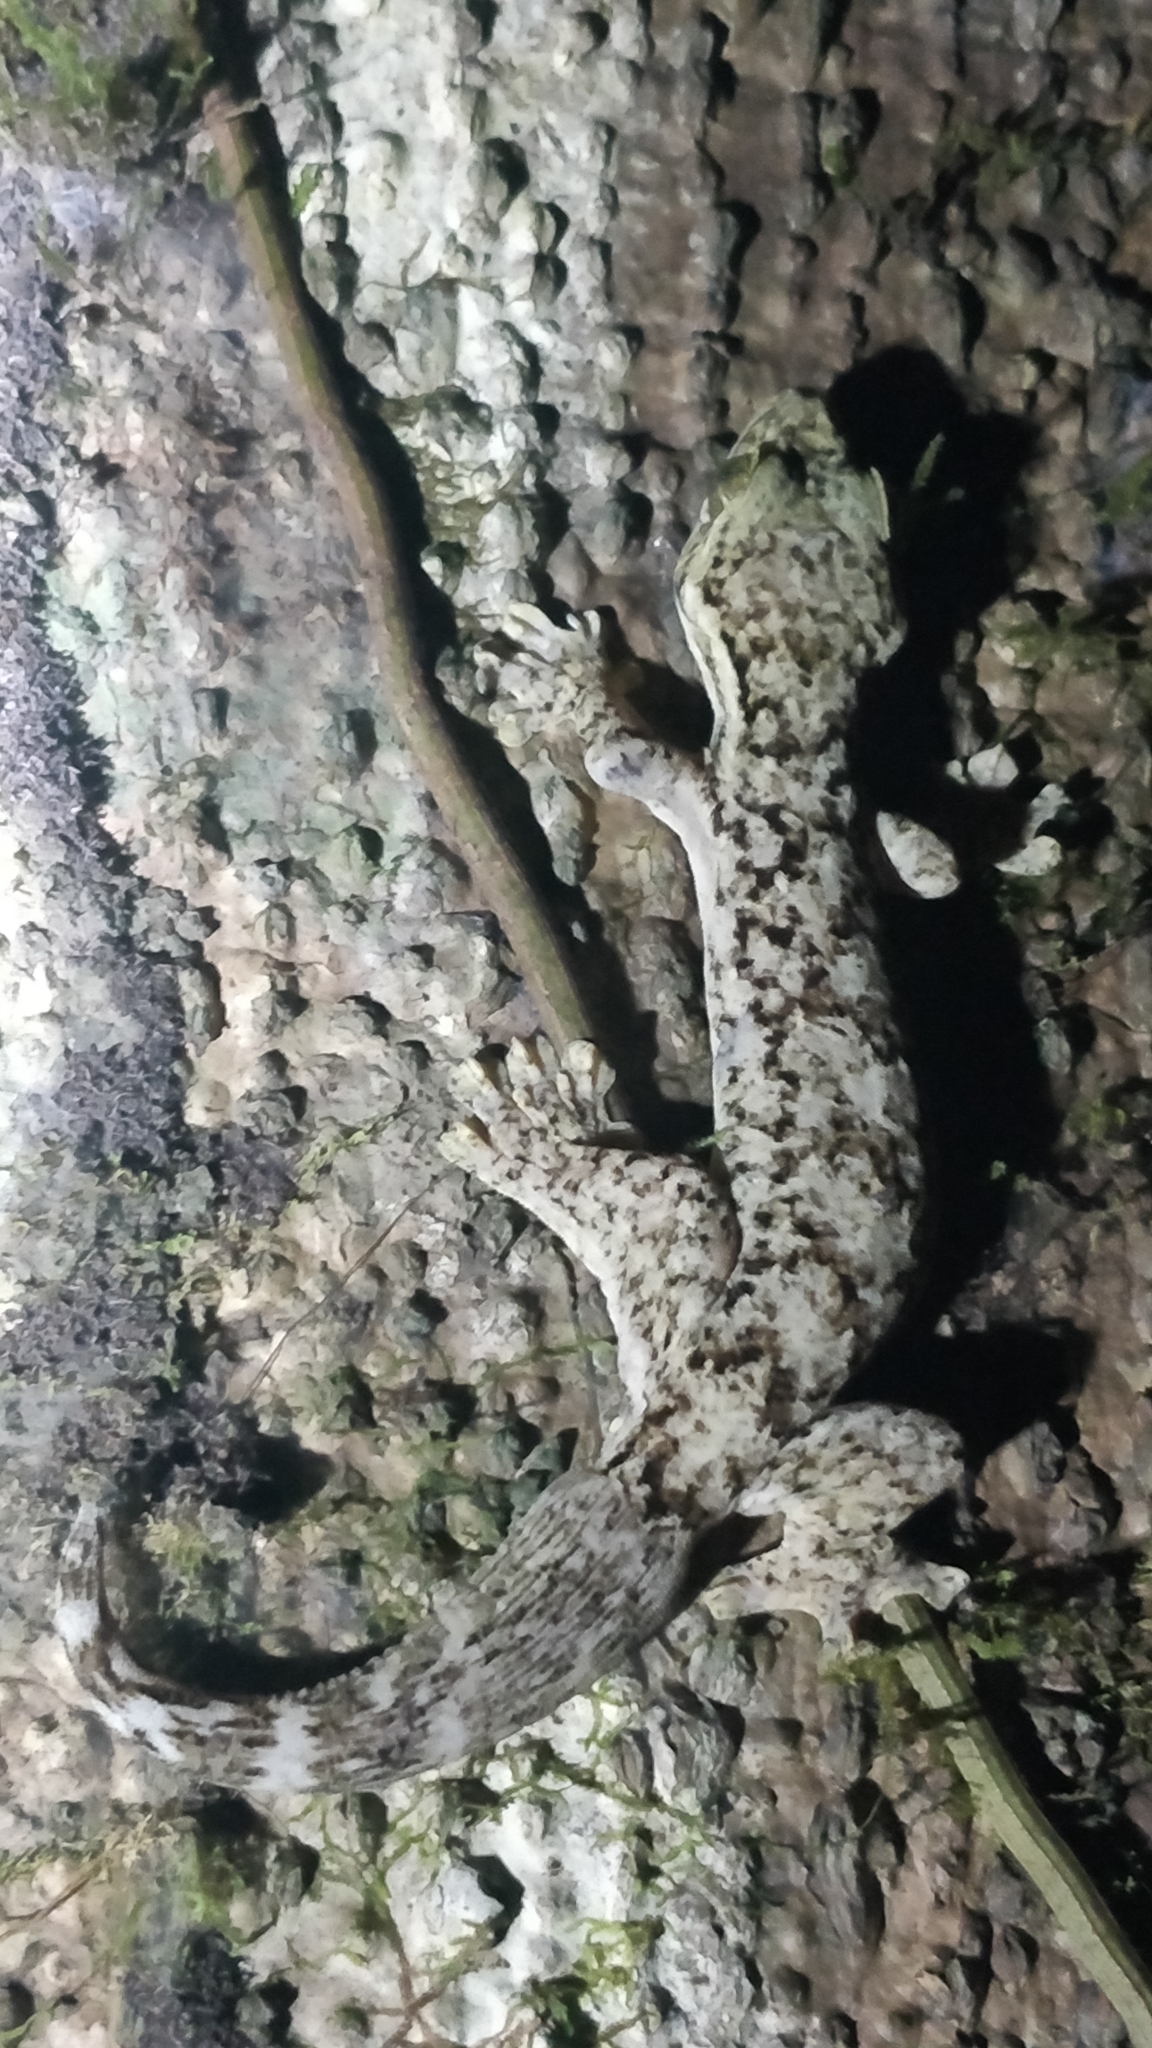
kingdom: Animalia
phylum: Chordata
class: Squamata
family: Phyllodactylidae
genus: Thecadactylus
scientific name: Thecadactylus rapicauda
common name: Turnip-tailed gecko
